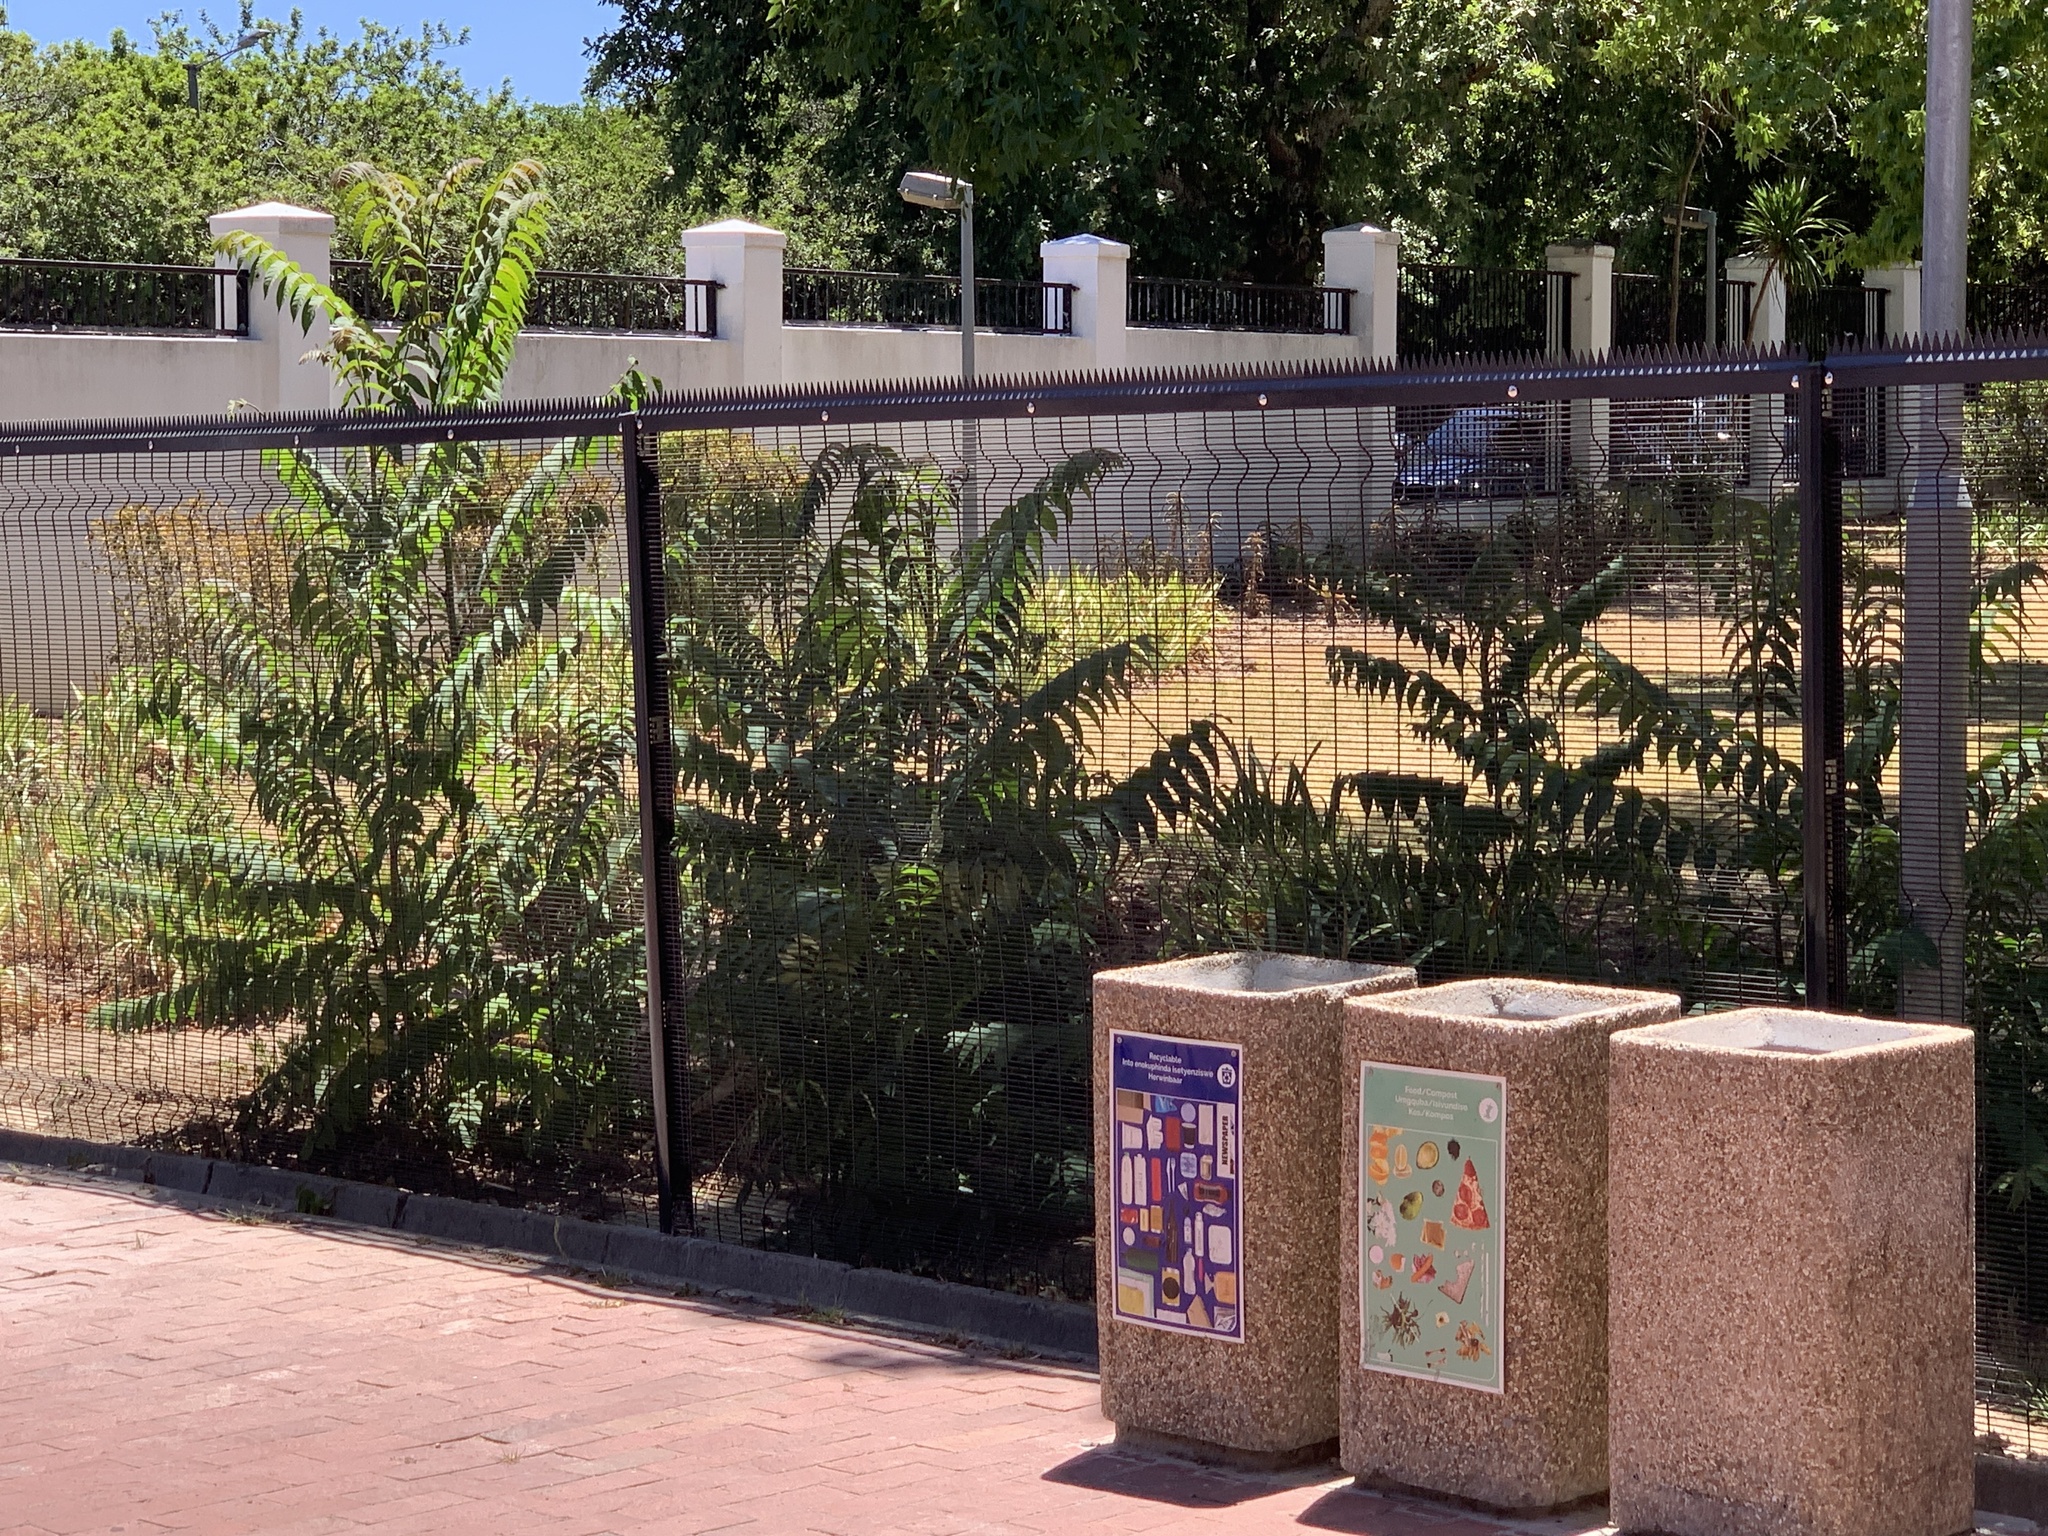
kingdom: Plantae
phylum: Tracheophyta
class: Magnoliopsida
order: Sapindales
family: Simaroubaceae
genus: Ailanthus
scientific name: Ailanthus altissima
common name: Tree-of-heaven
